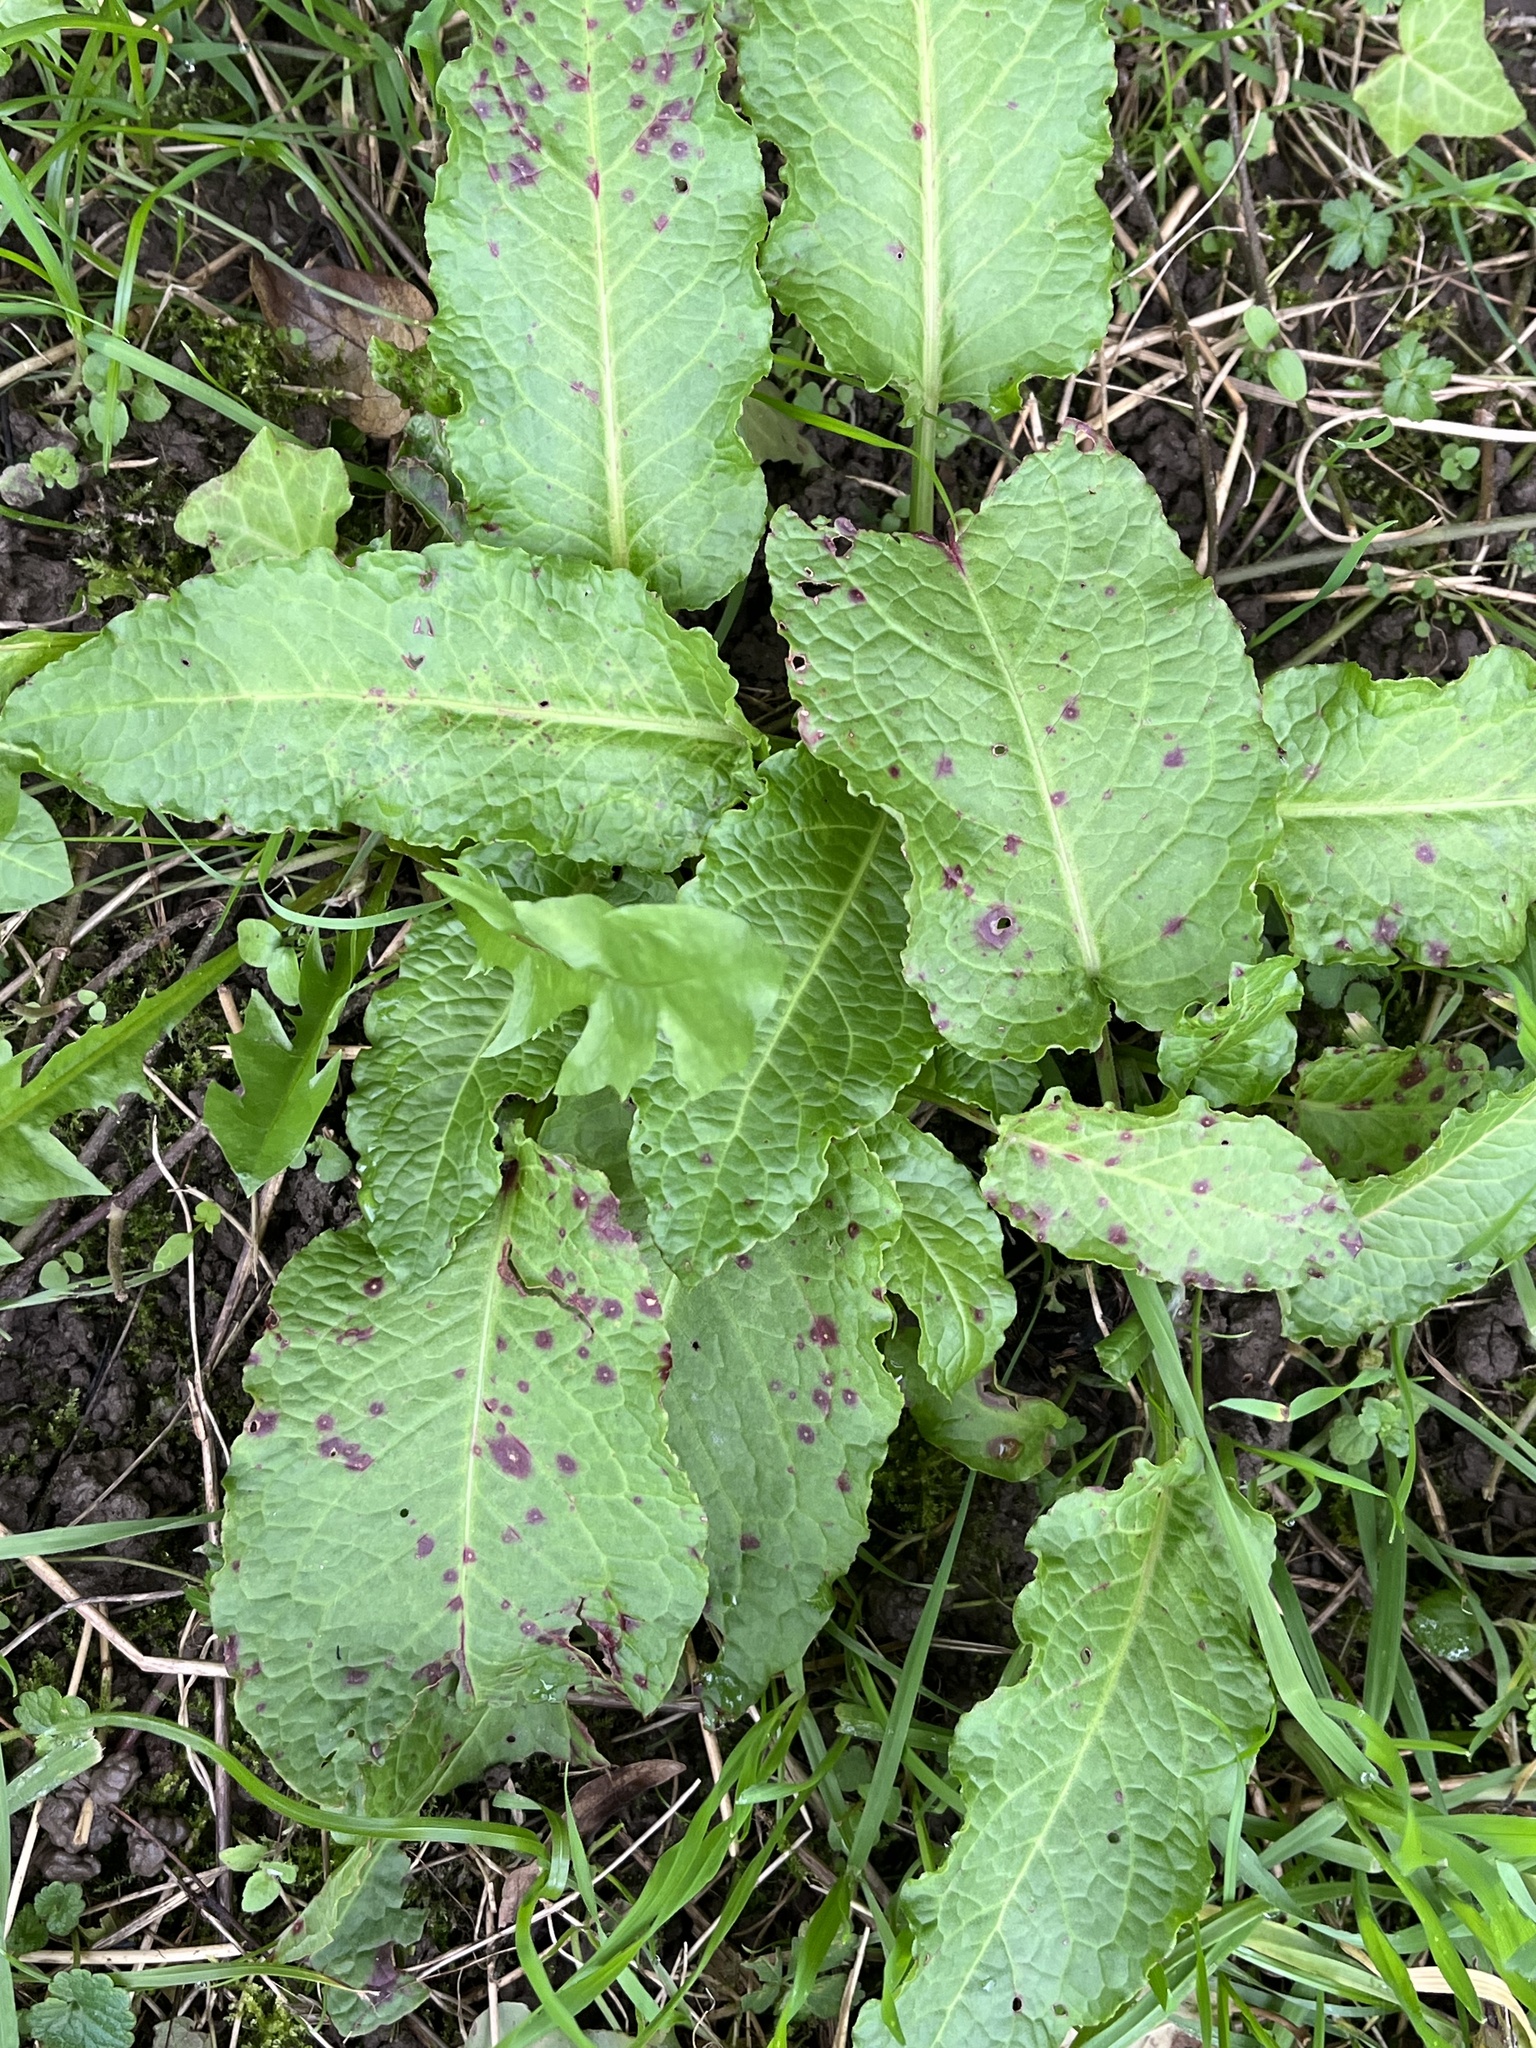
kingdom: Plantae
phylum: Tracheophyta
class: Magnoliopsida
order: Caryophyllales
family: Polygonaceae
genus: Rumex
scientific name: Rumex obtusifolius
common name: Bitter dock
